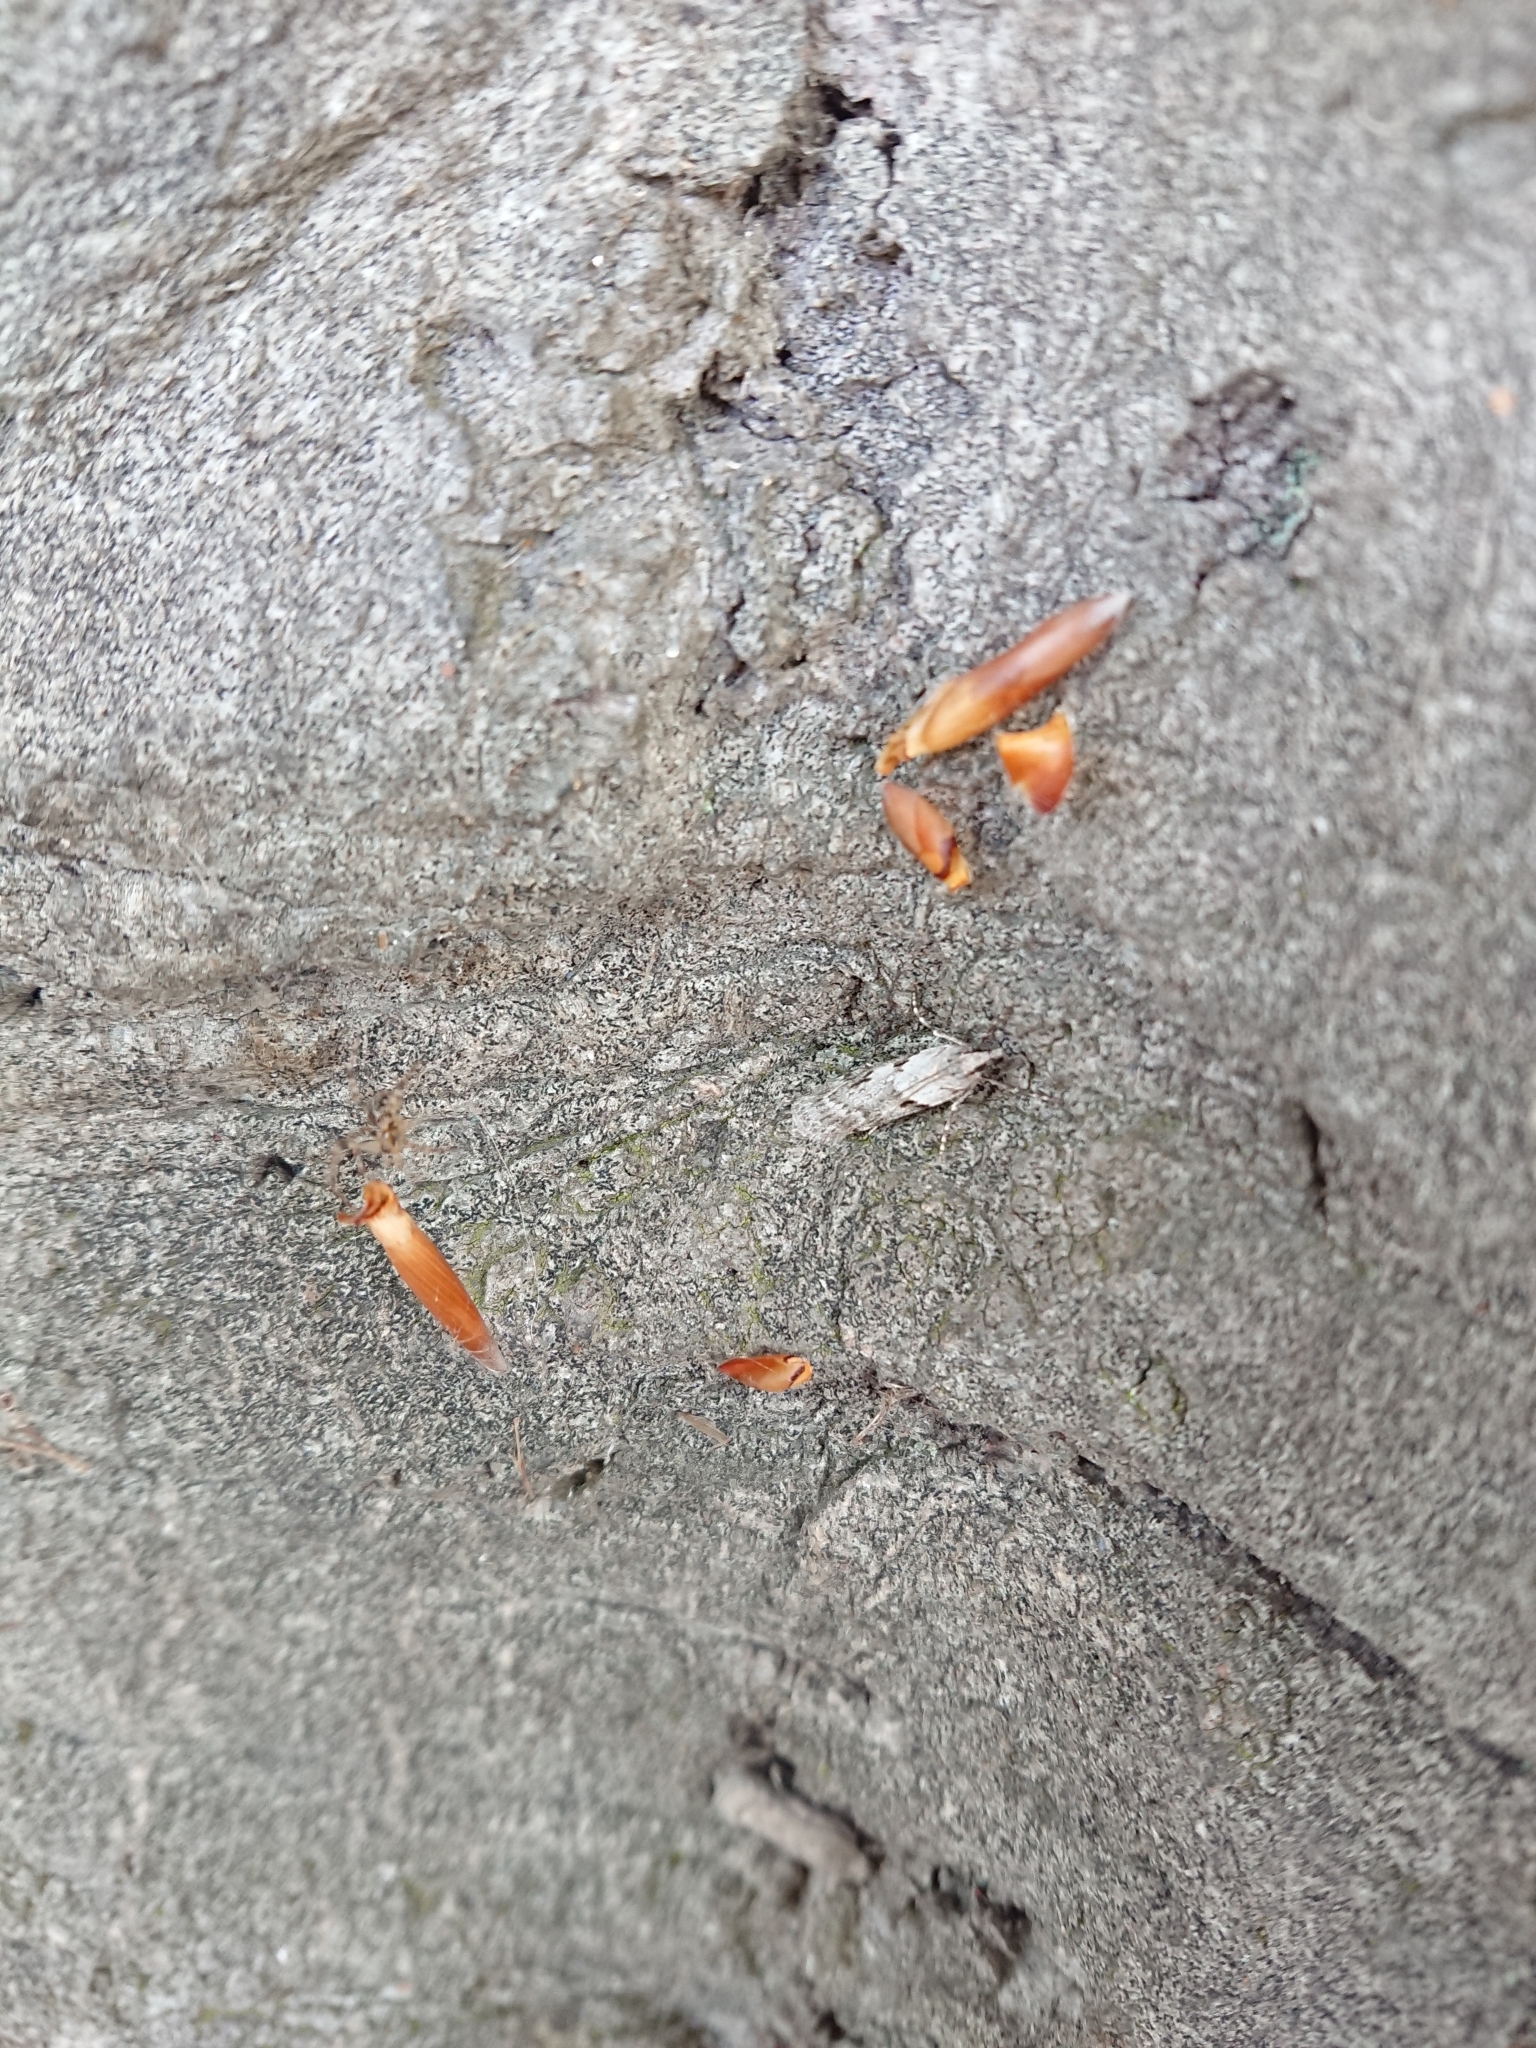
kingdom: Animalia
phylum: Arthropoda
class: Insecta
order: Lepidoptera
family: Crambidae
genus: Scoparia
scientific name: Scoparia halopis
